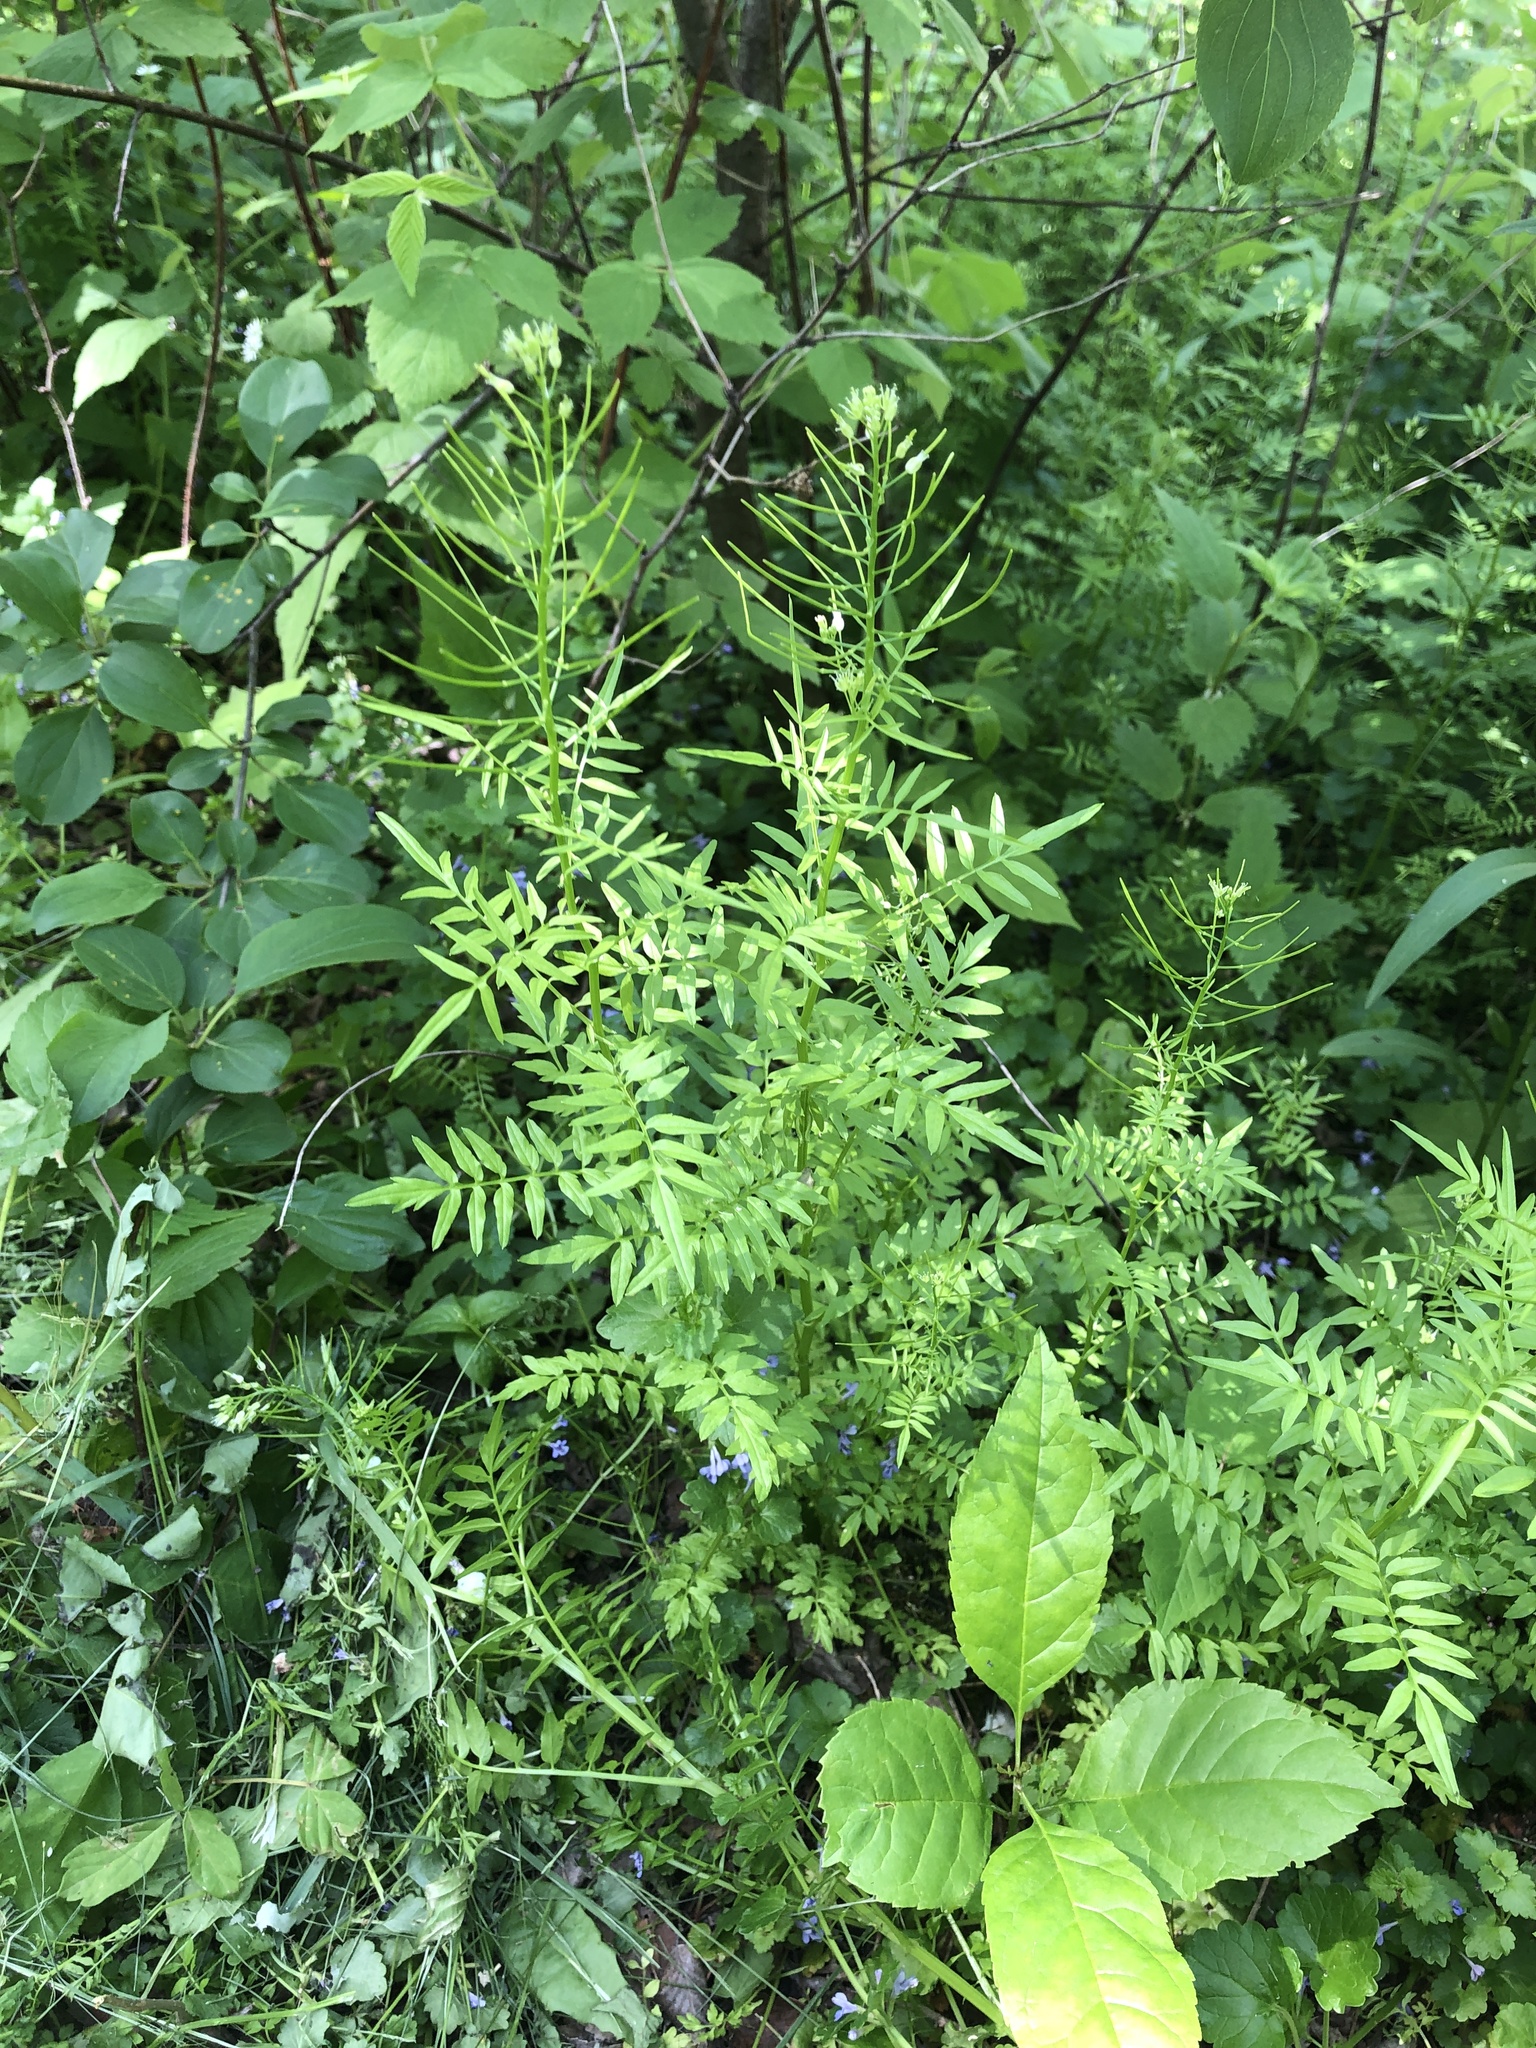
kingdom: Plantae
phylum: Tracheophyta
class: Magnoliopsida
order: Brassicales
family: Brassicaceae
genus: Cardamine
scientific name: Cardamine impatiens
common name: Narrow-leaved bitter-cress
